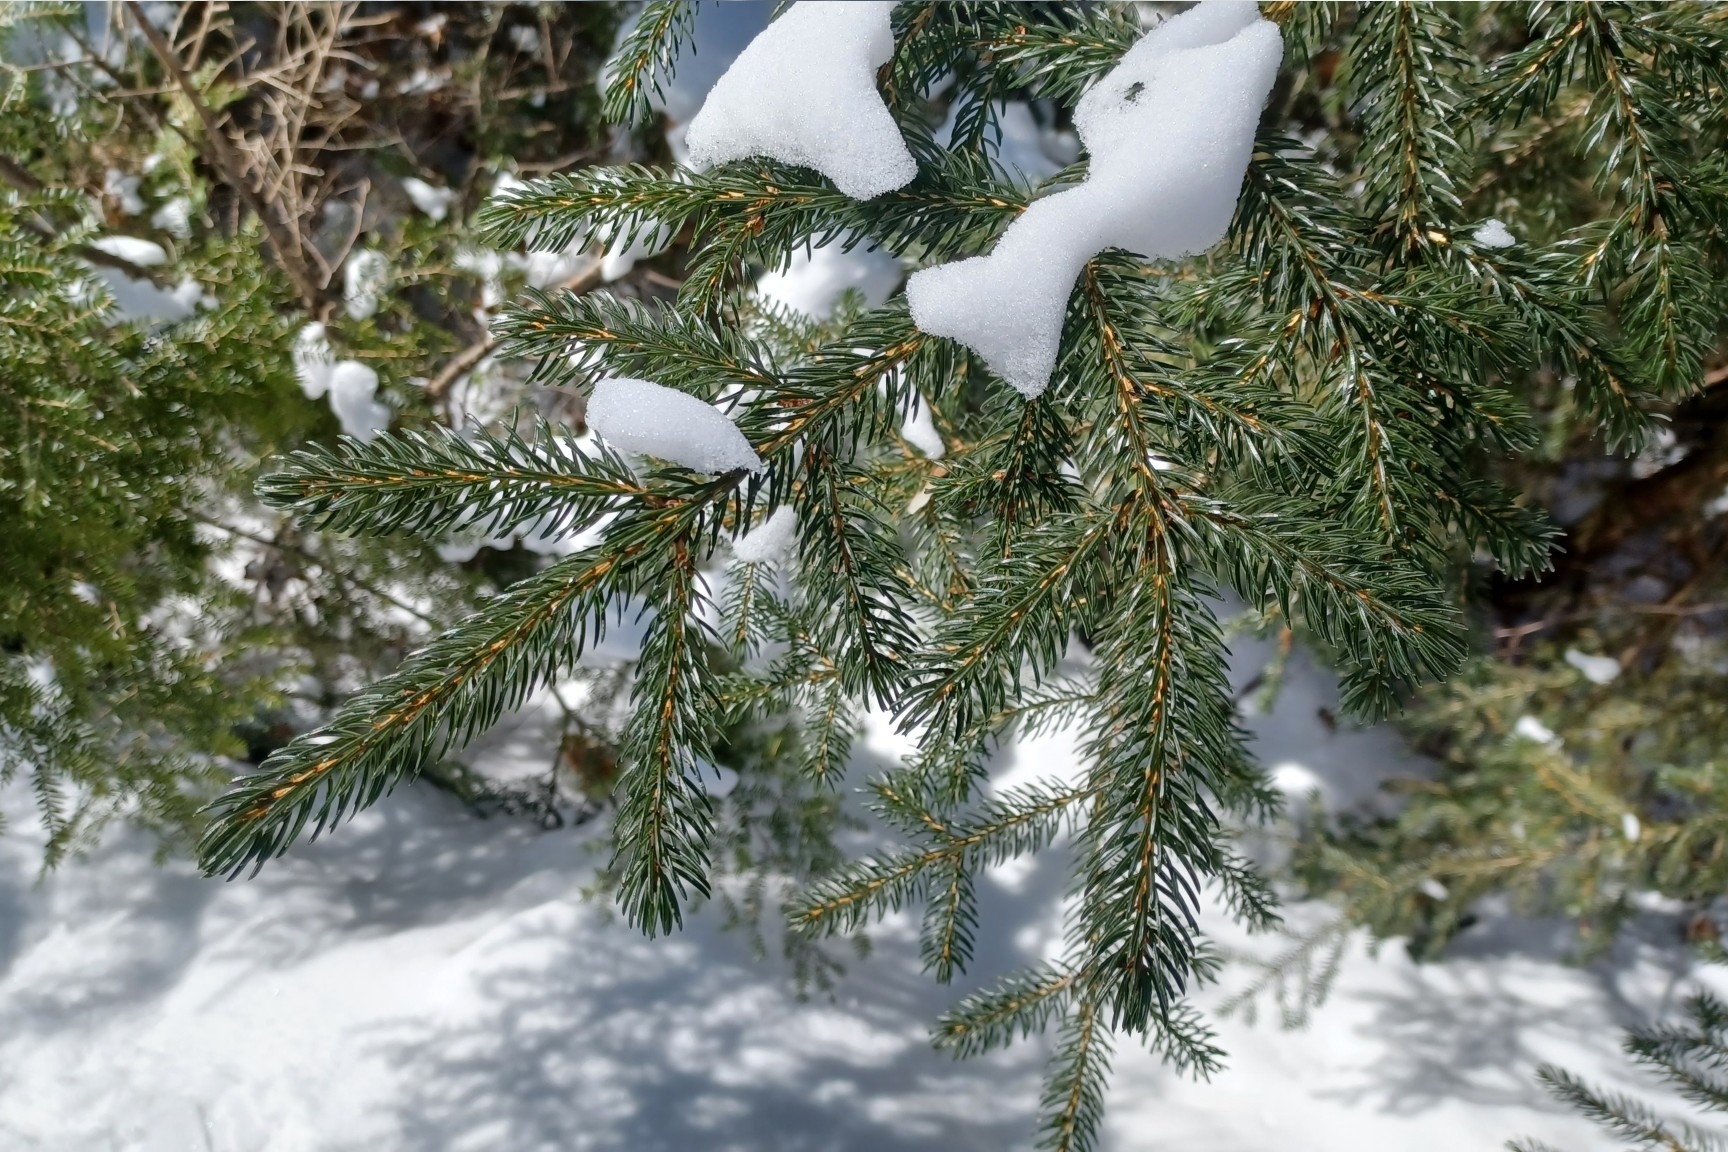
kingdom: Plantae
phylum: Tracheophyta
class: Pinopsida
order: Pinales
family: Pinaceae
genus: Picea
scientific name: Picea rubens
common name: Red spruce
